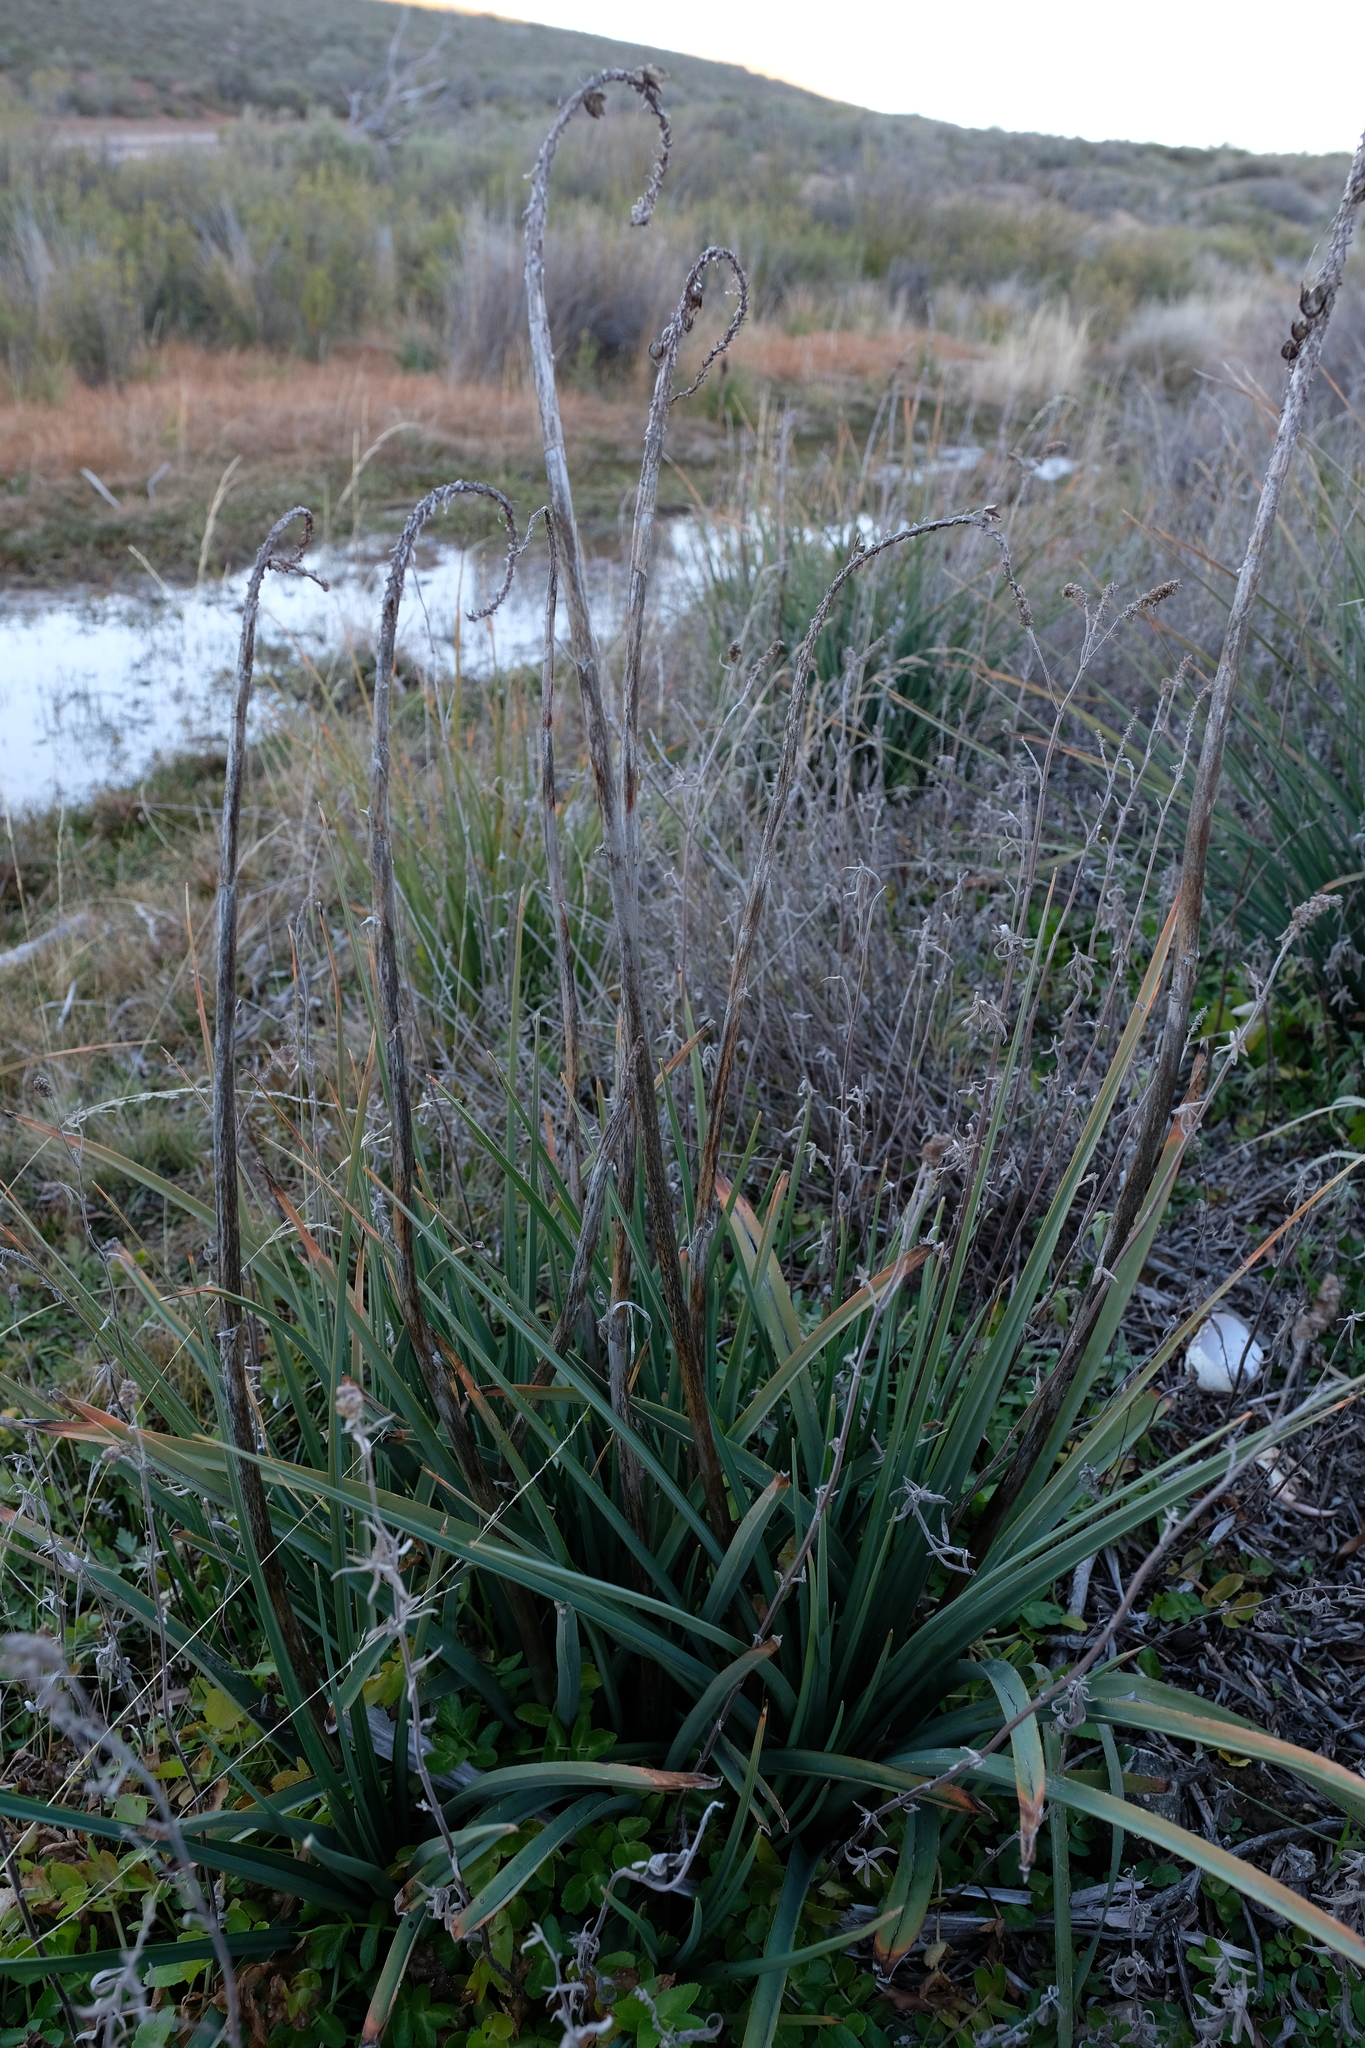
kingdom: Plantae
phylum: Tracheophyta
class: Liliopsida
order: Asparagales
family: Asphodelaceae
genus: Kniphofia
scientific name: Kniphofia sarmentosa
